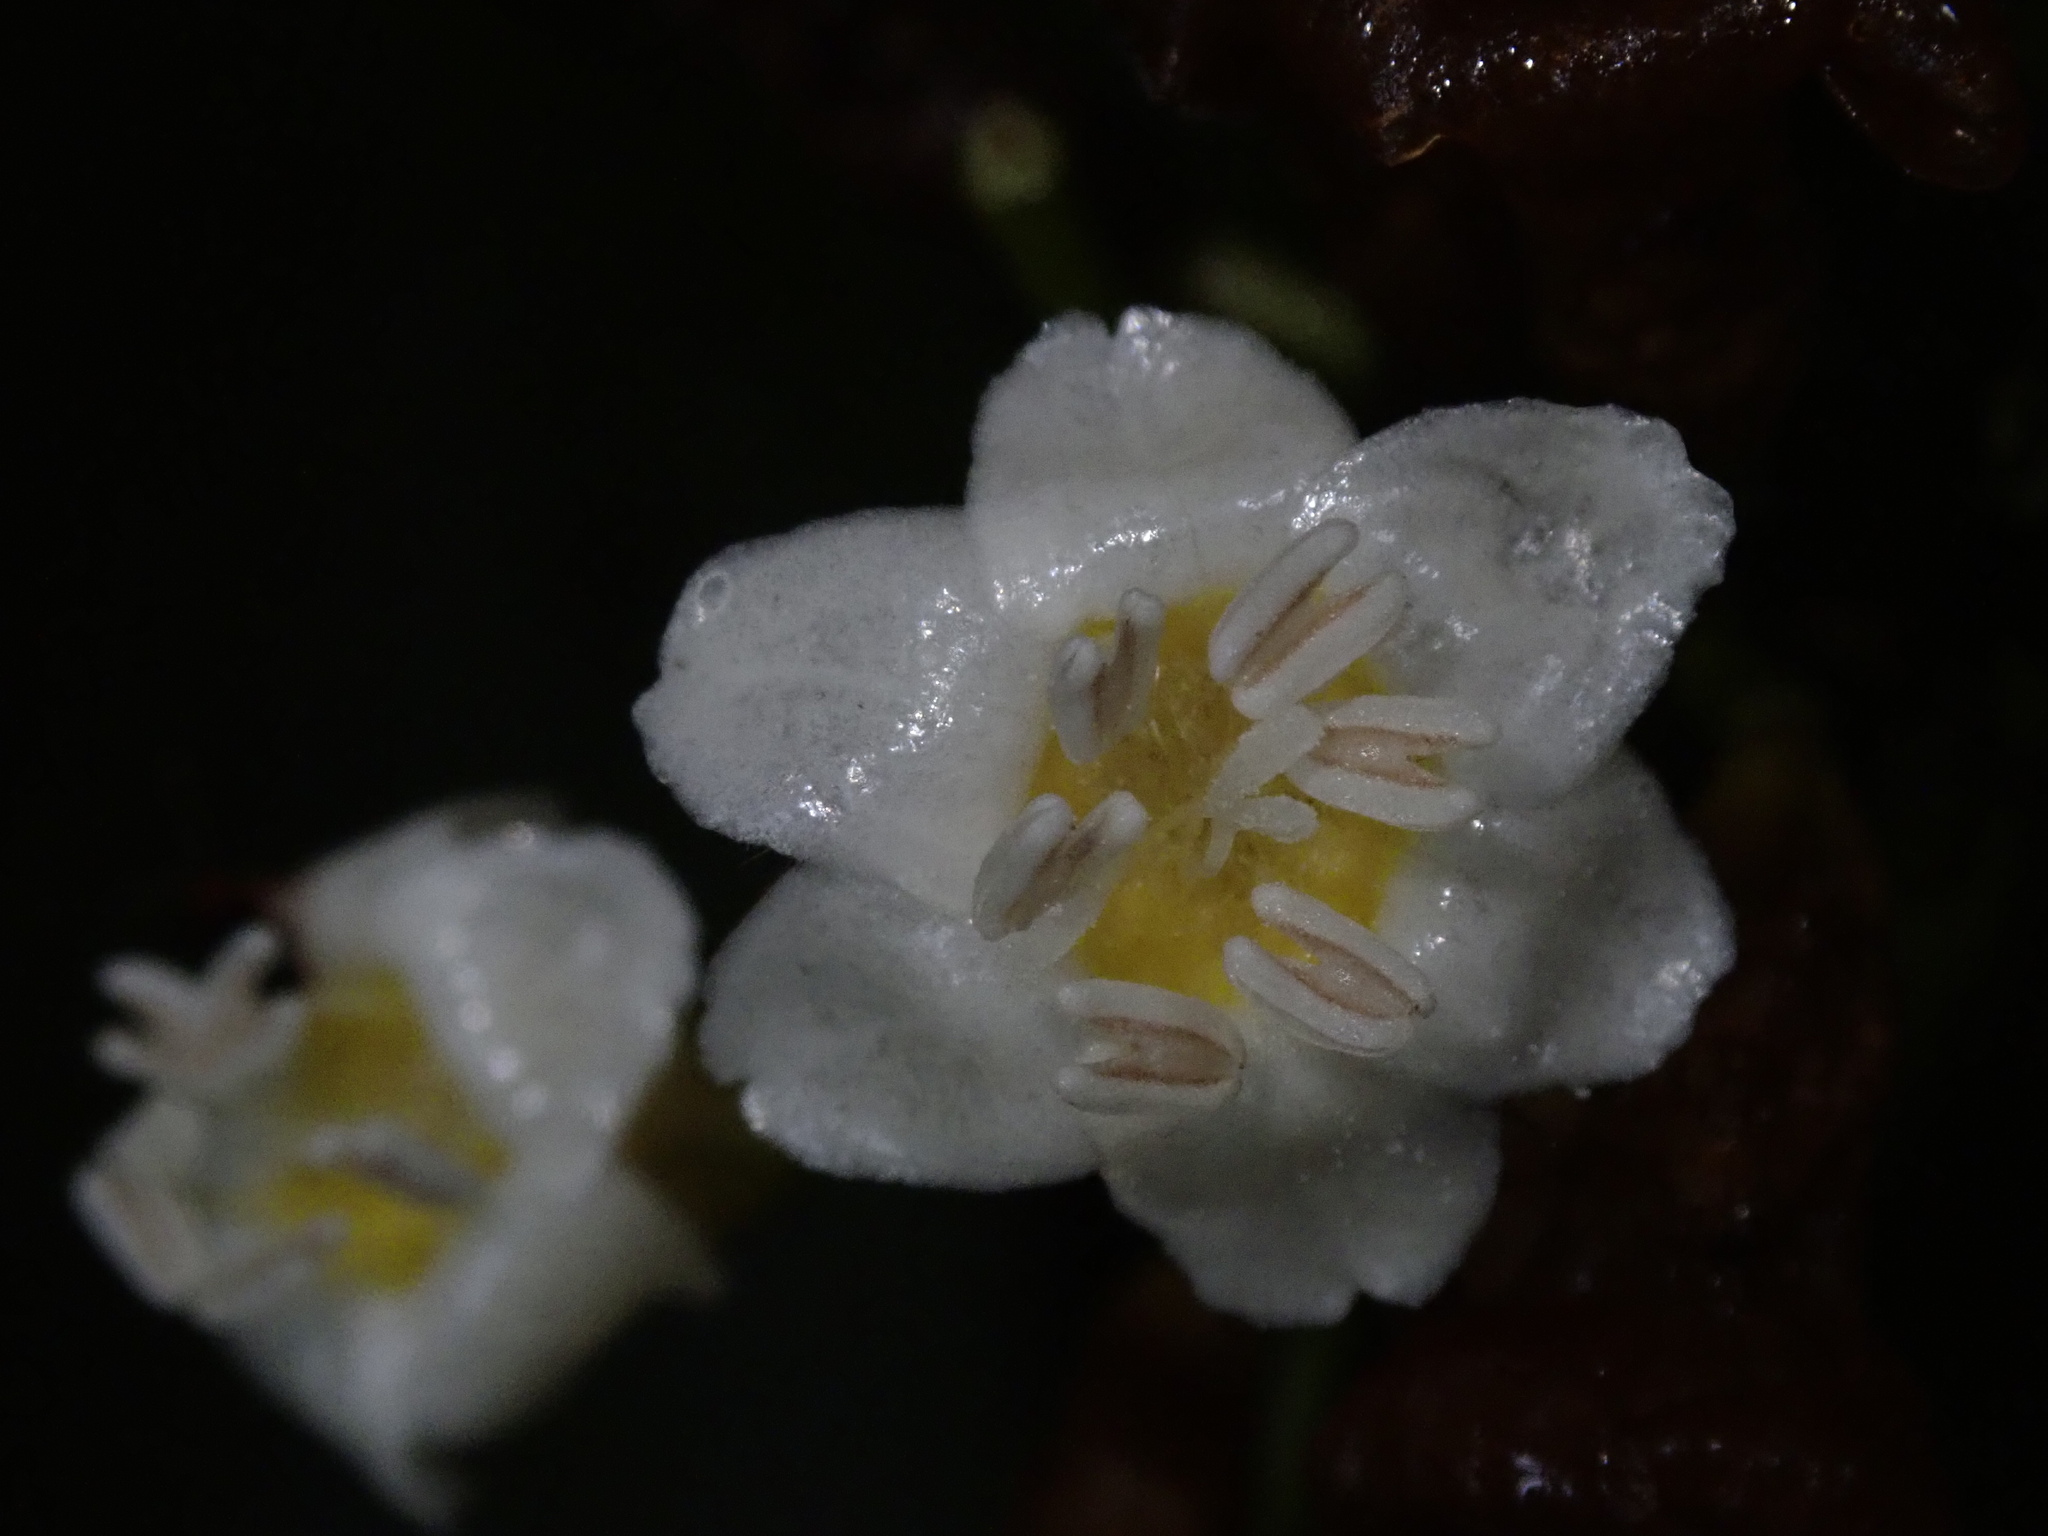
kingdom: Plantae
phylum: Tracheophyta
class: Magnoliopsida
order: Boraginales
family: Cordiaceae
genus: Cordia
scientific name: Cordia nodosa
